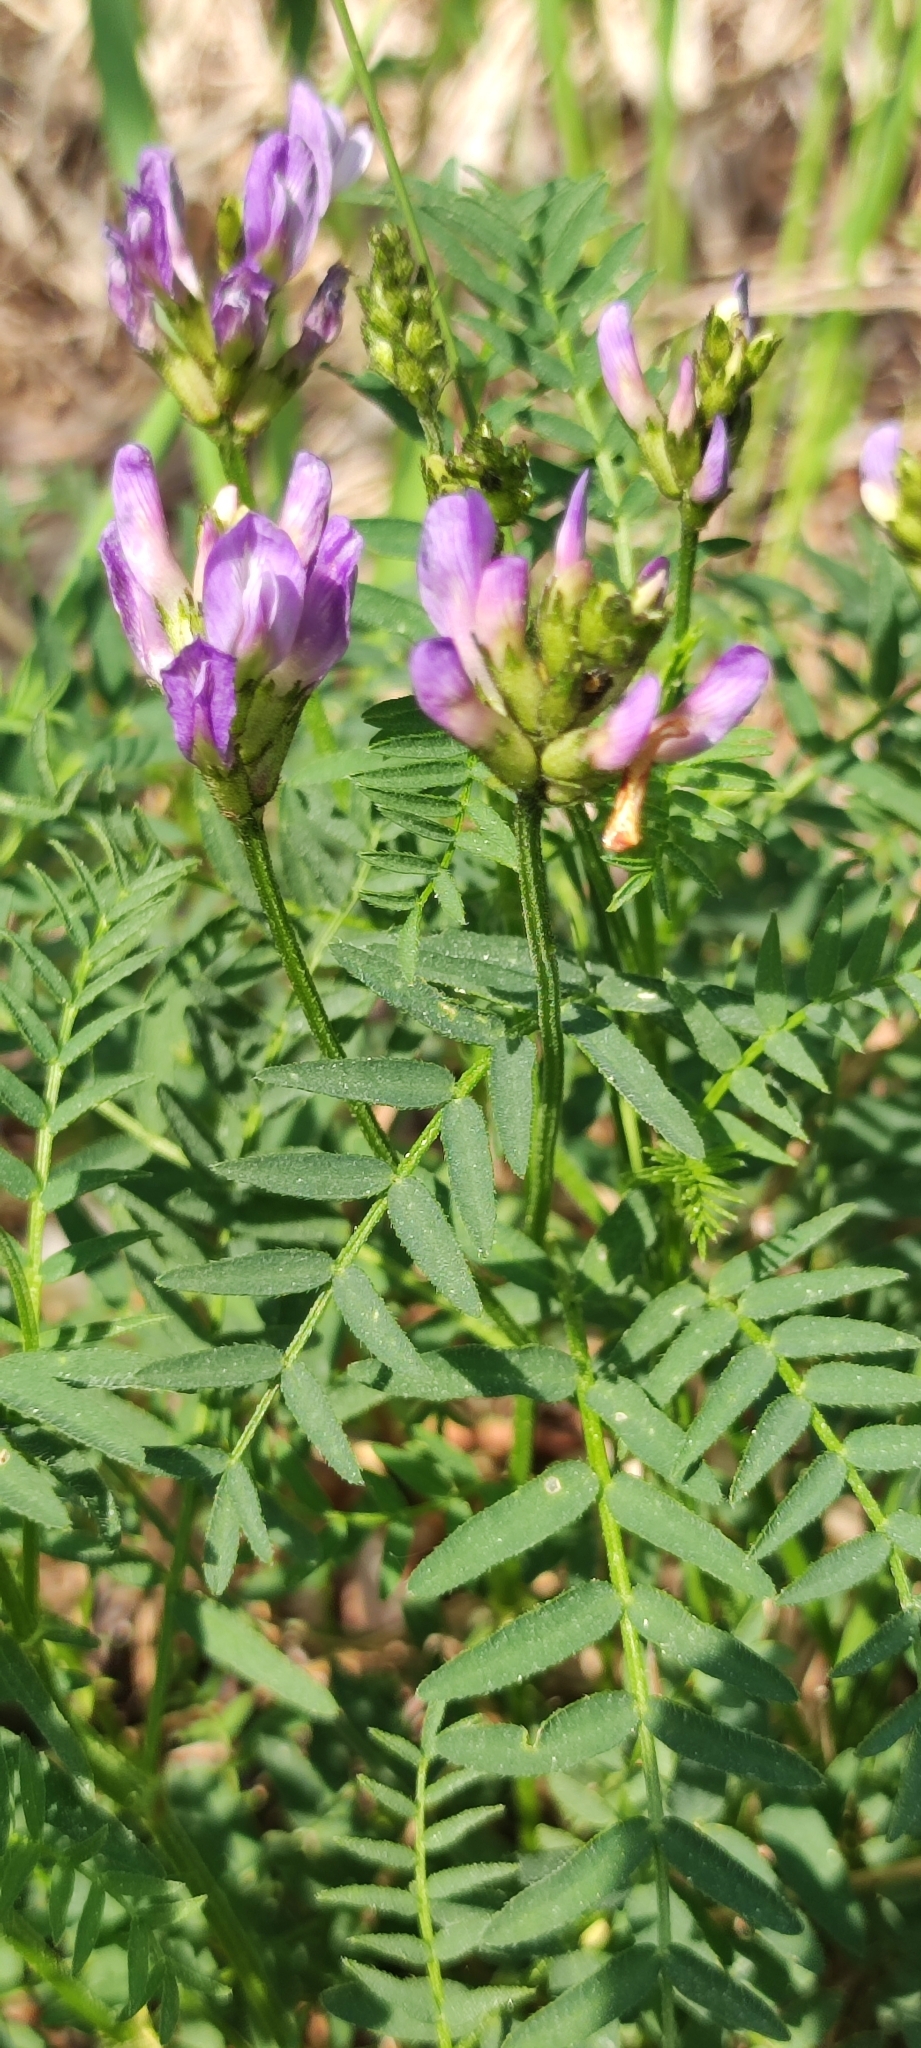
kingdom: Plantae
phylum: Tracheophyta
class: Magnoliopsida
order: Fabales
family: Fabaceae
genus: Astragalus
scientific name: Astragalus danicus
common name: Purple milk-vetch
